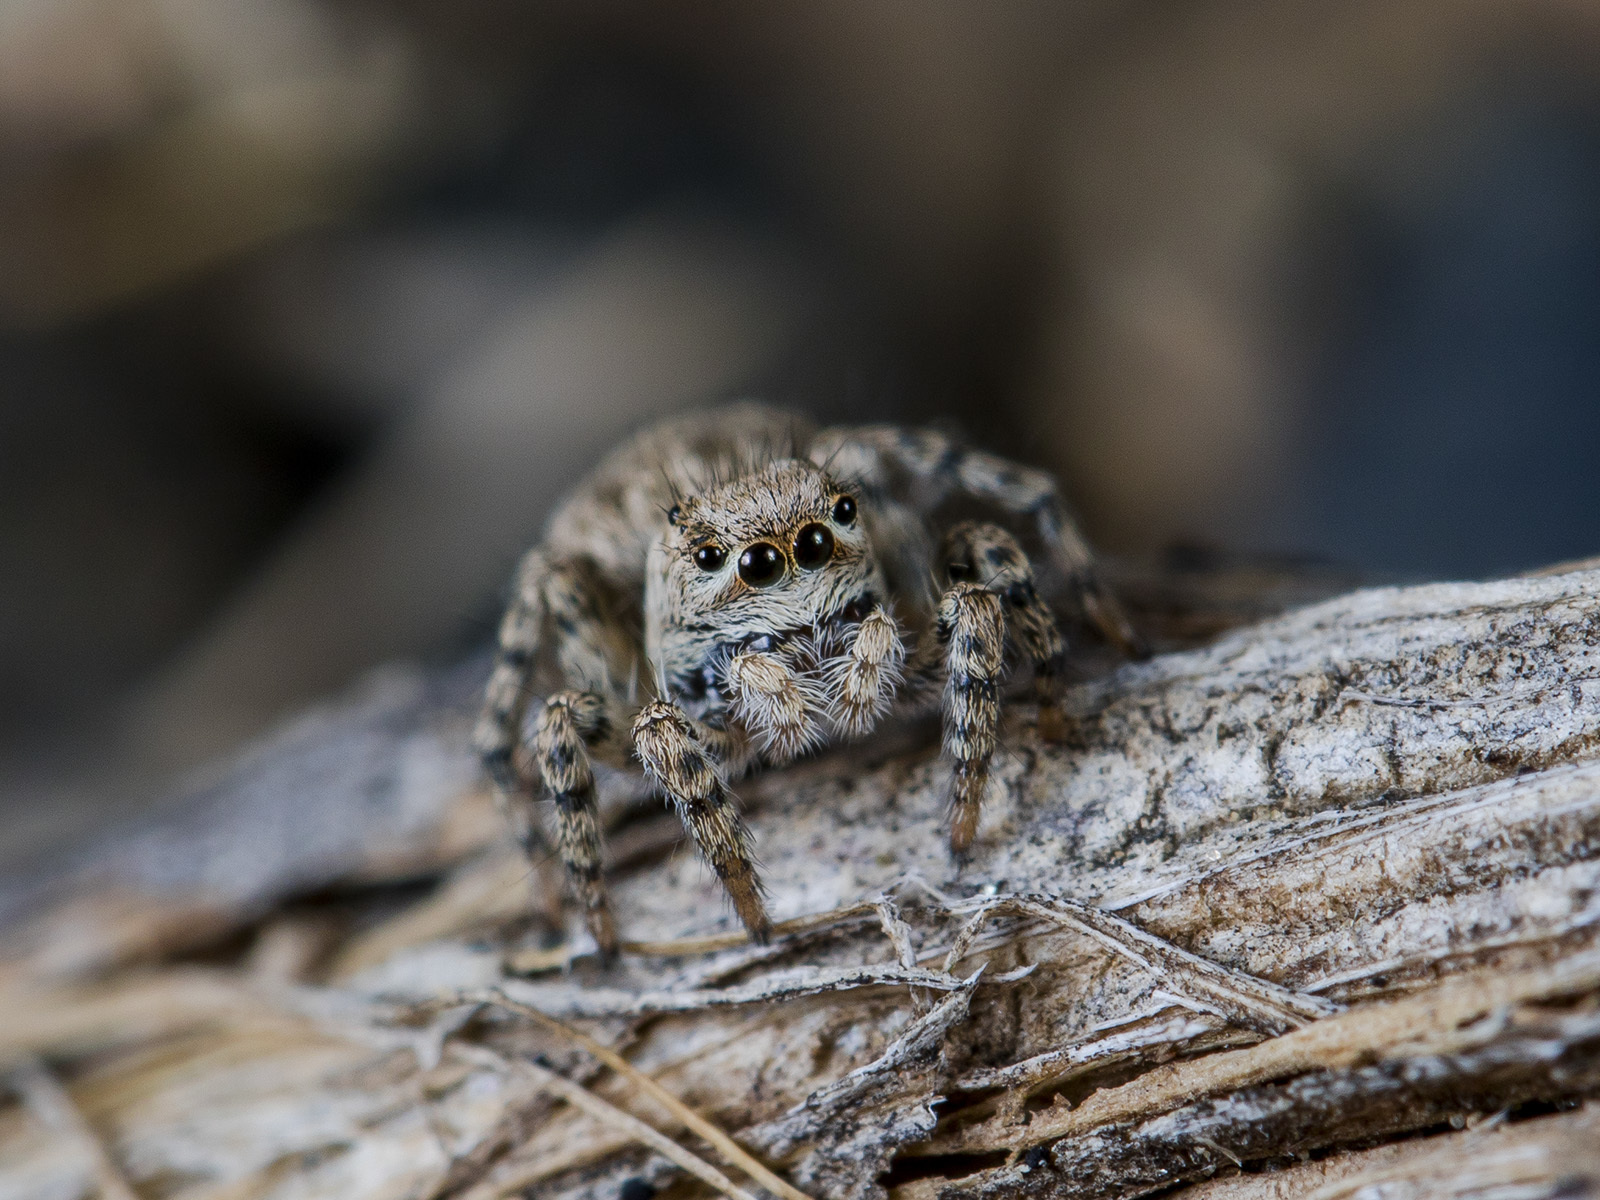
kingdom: Animalia
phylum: Arthropoda
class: Arachnida
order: Araneae
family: Salticidae
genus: Aelurillus
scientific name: Aelurillus dubatolovi
